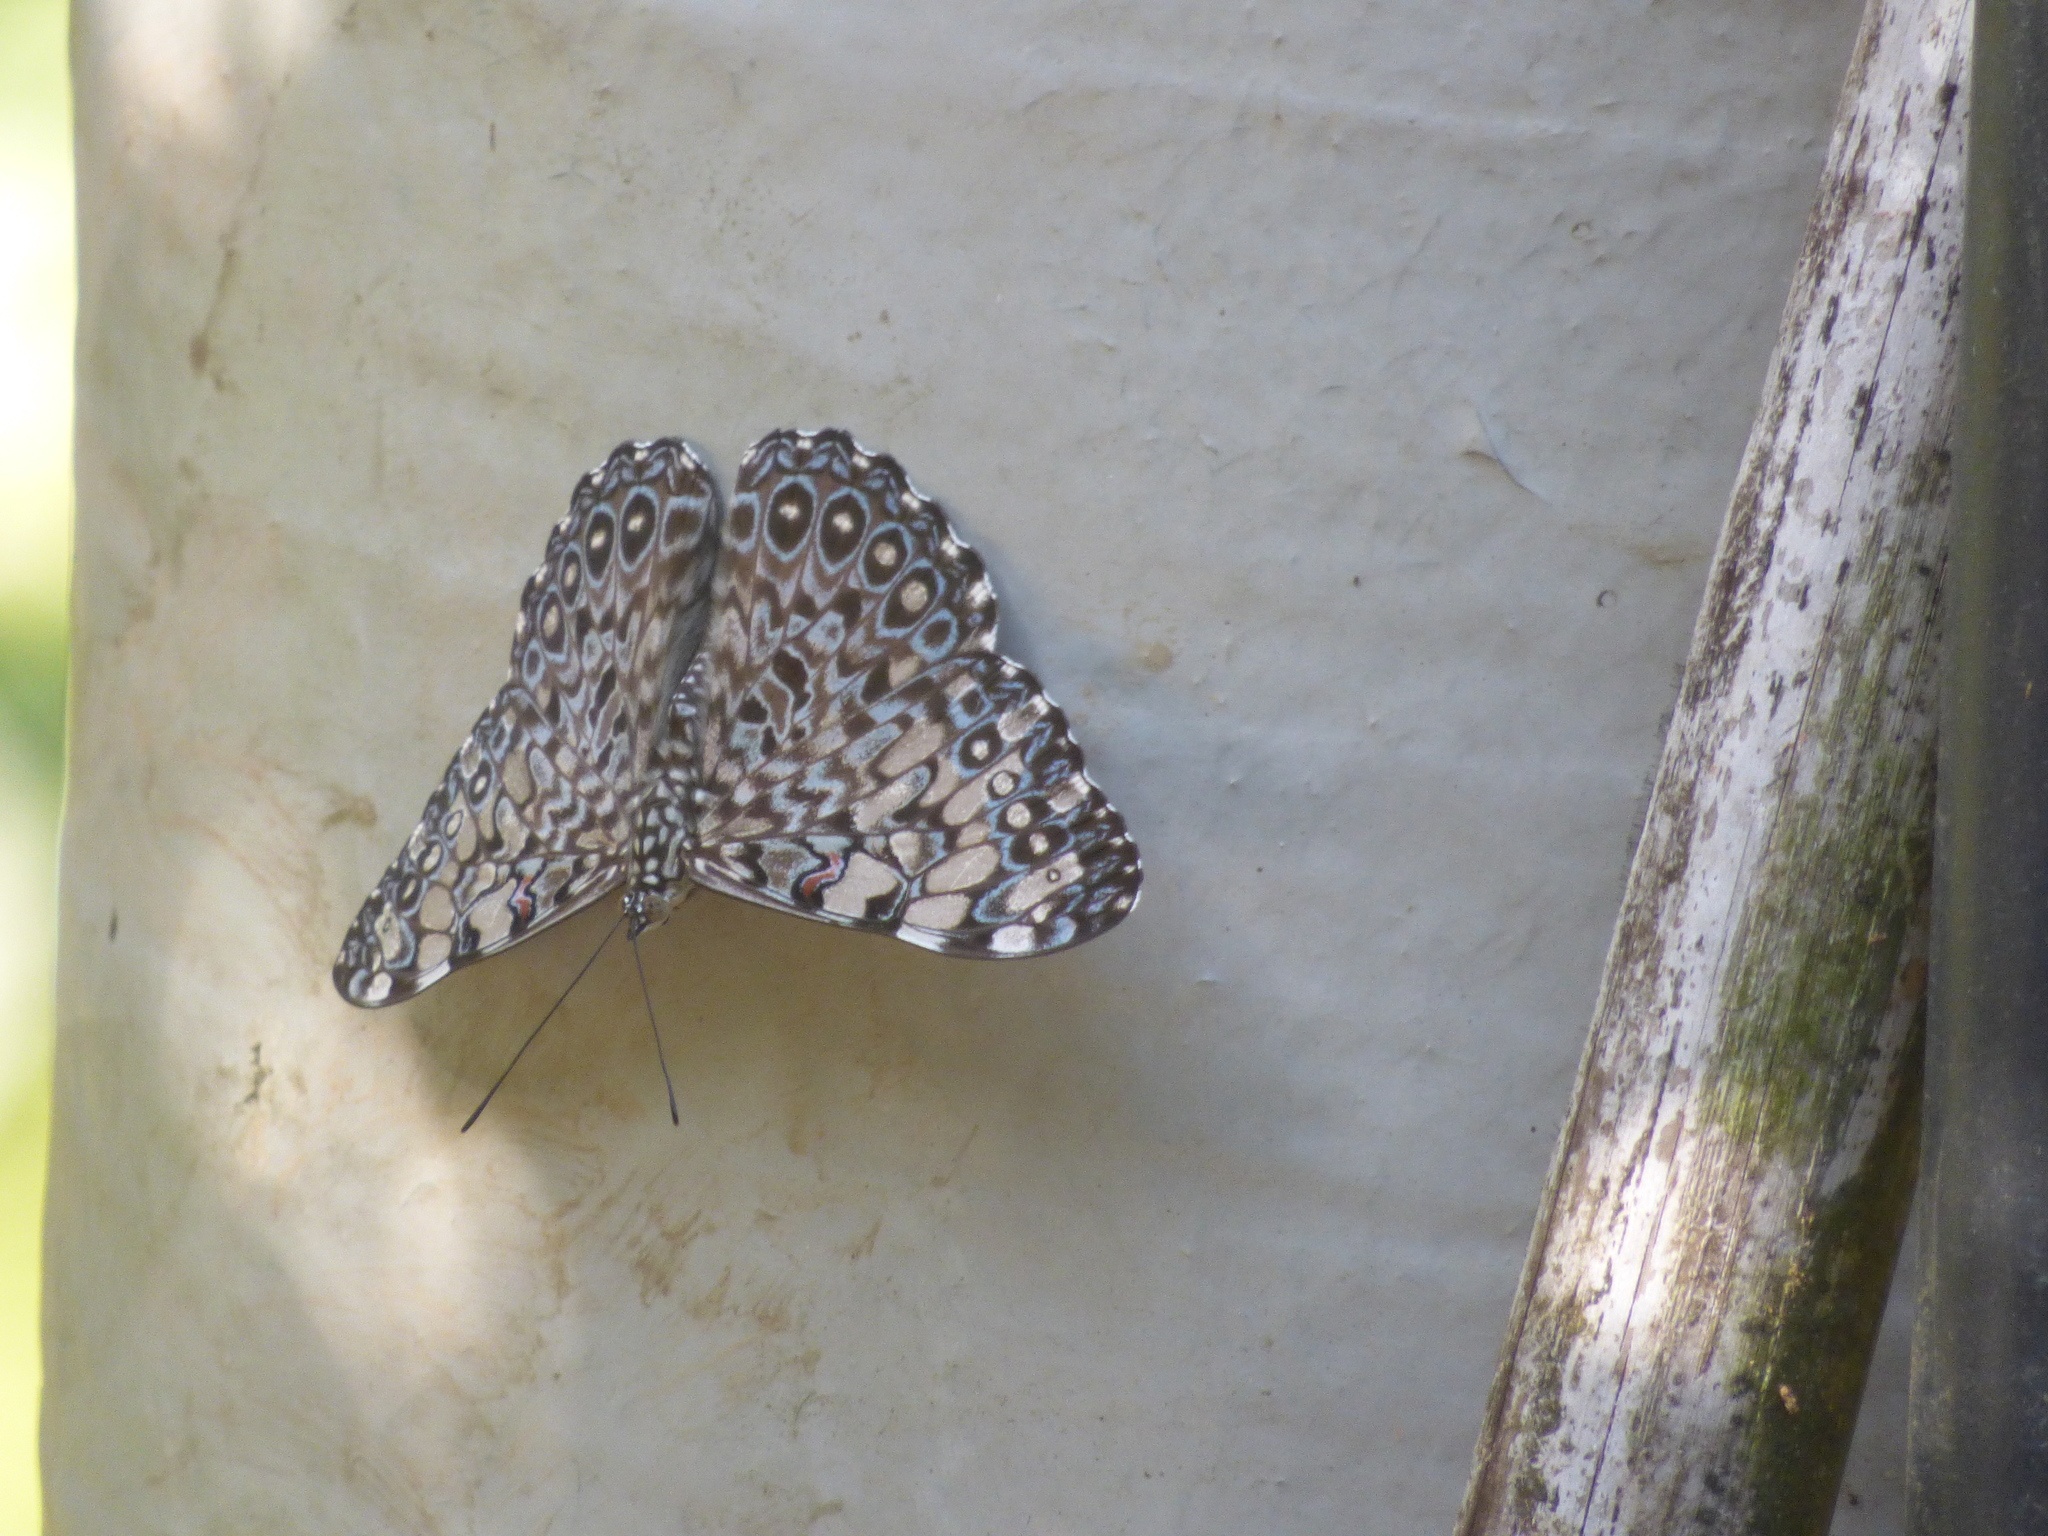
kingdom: Animalia
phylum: Arthropoda
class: Insecta
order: Lepidoptera
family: Nymphalidae
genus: Hamadryas
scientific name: Hamadryas feronia
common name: Variable cracker
